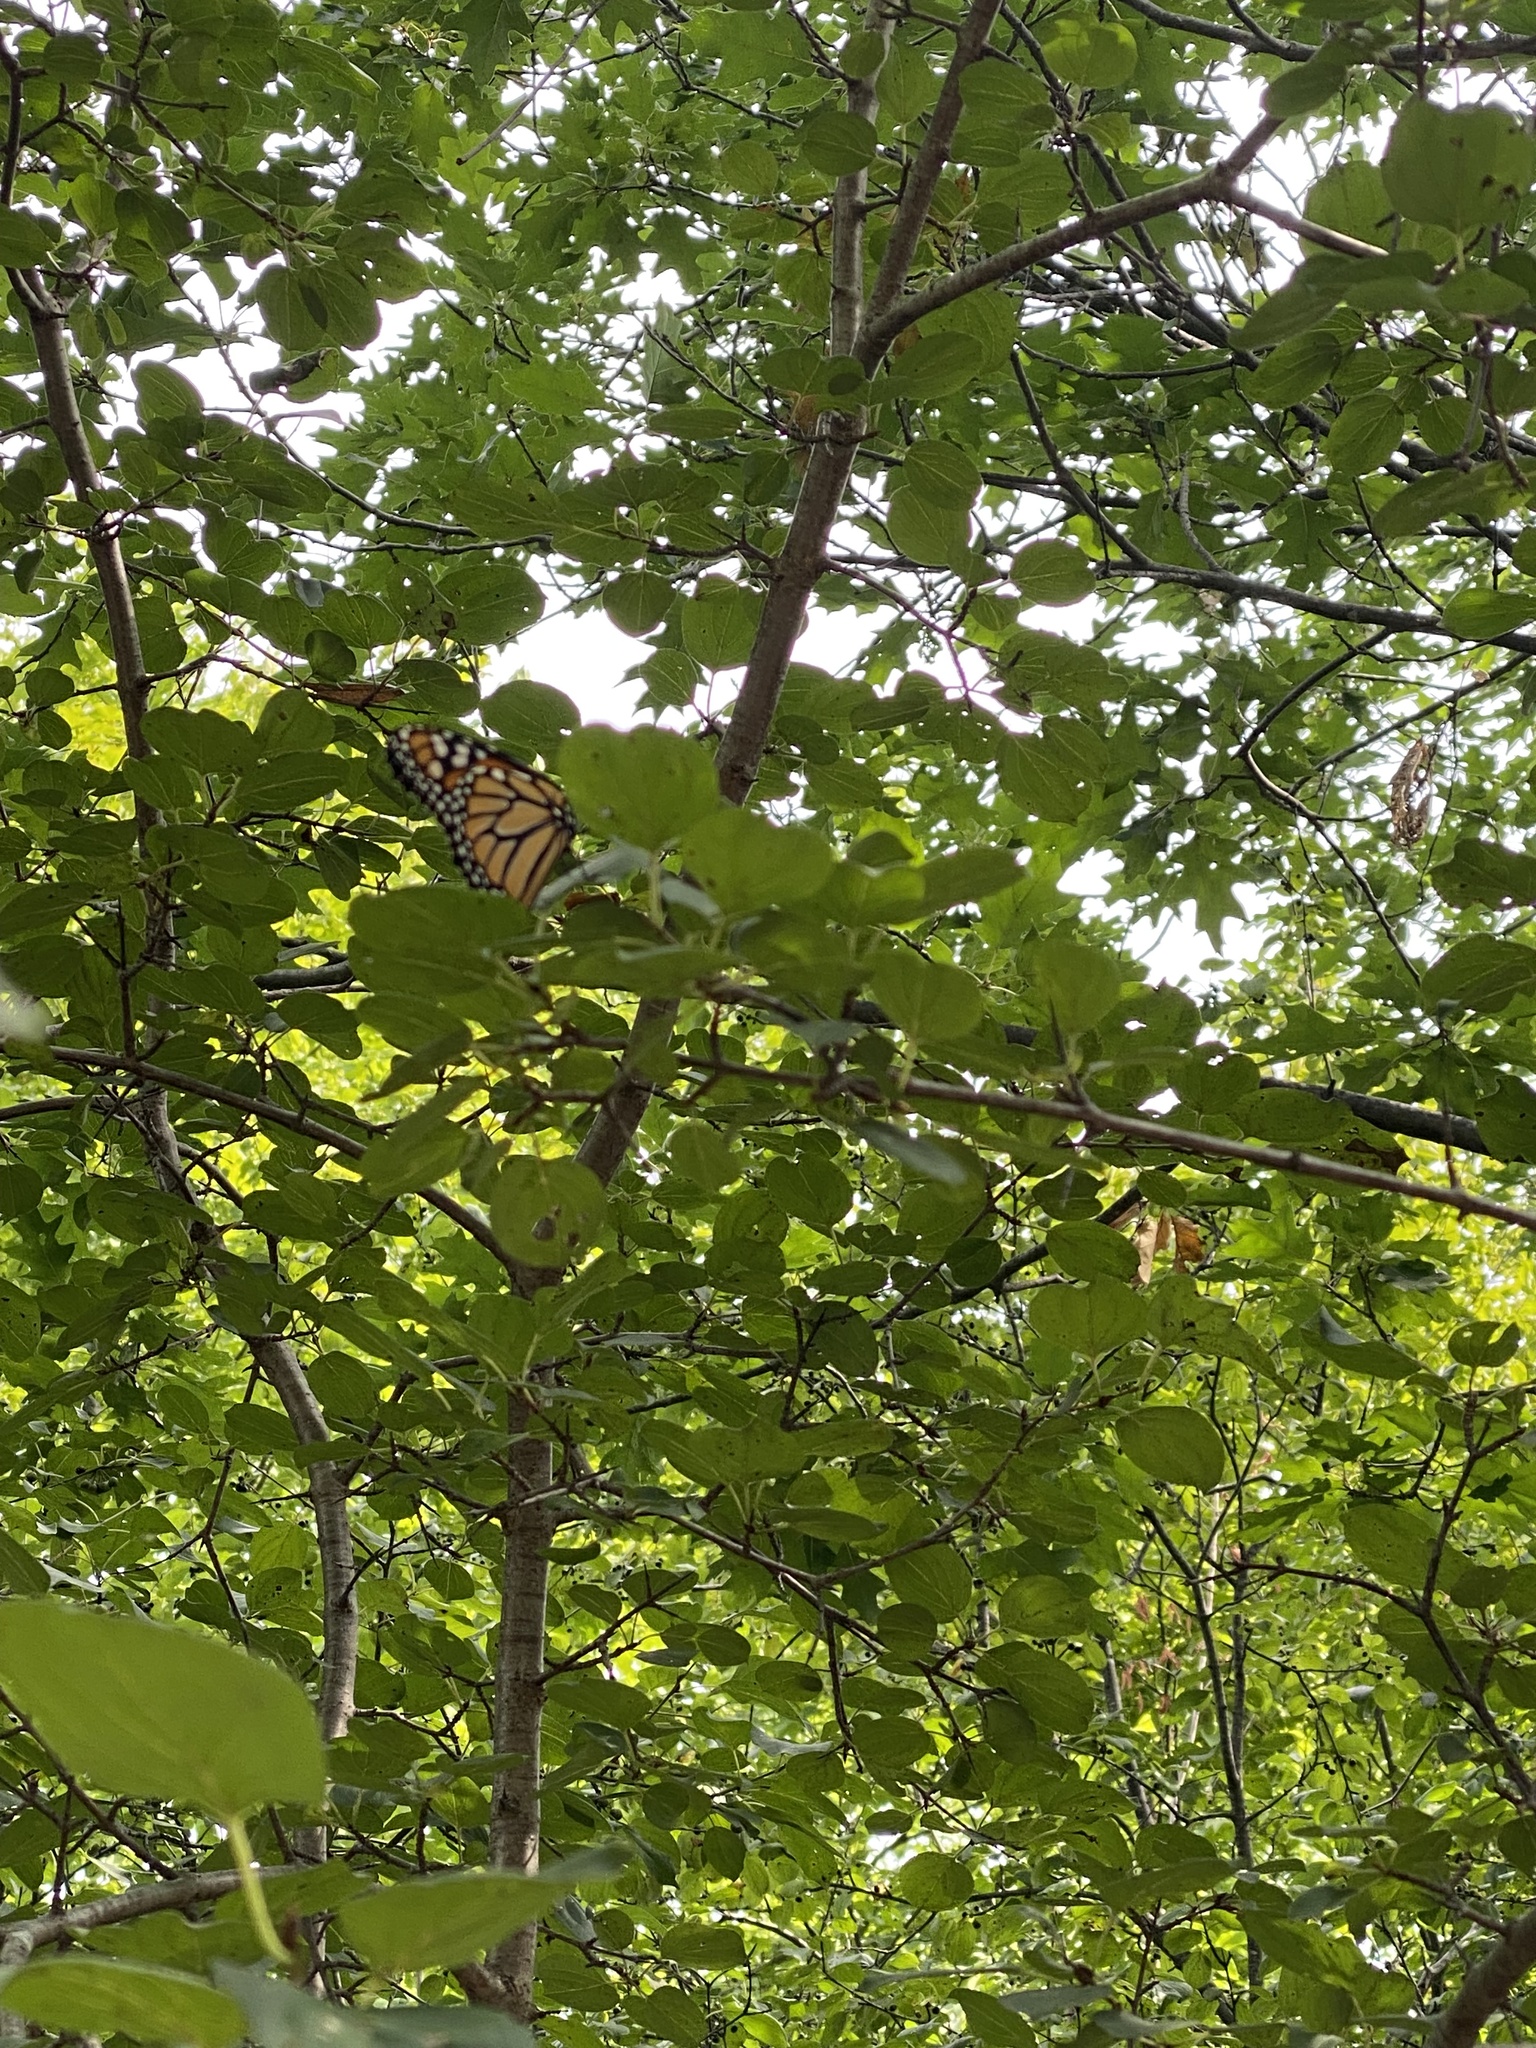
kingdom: Animalia
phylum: Arthropoda
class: Insecta
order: Lepidoptera
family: Nymphalidae
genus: Danaus
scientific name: Danaus plexippus
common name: Monarch
